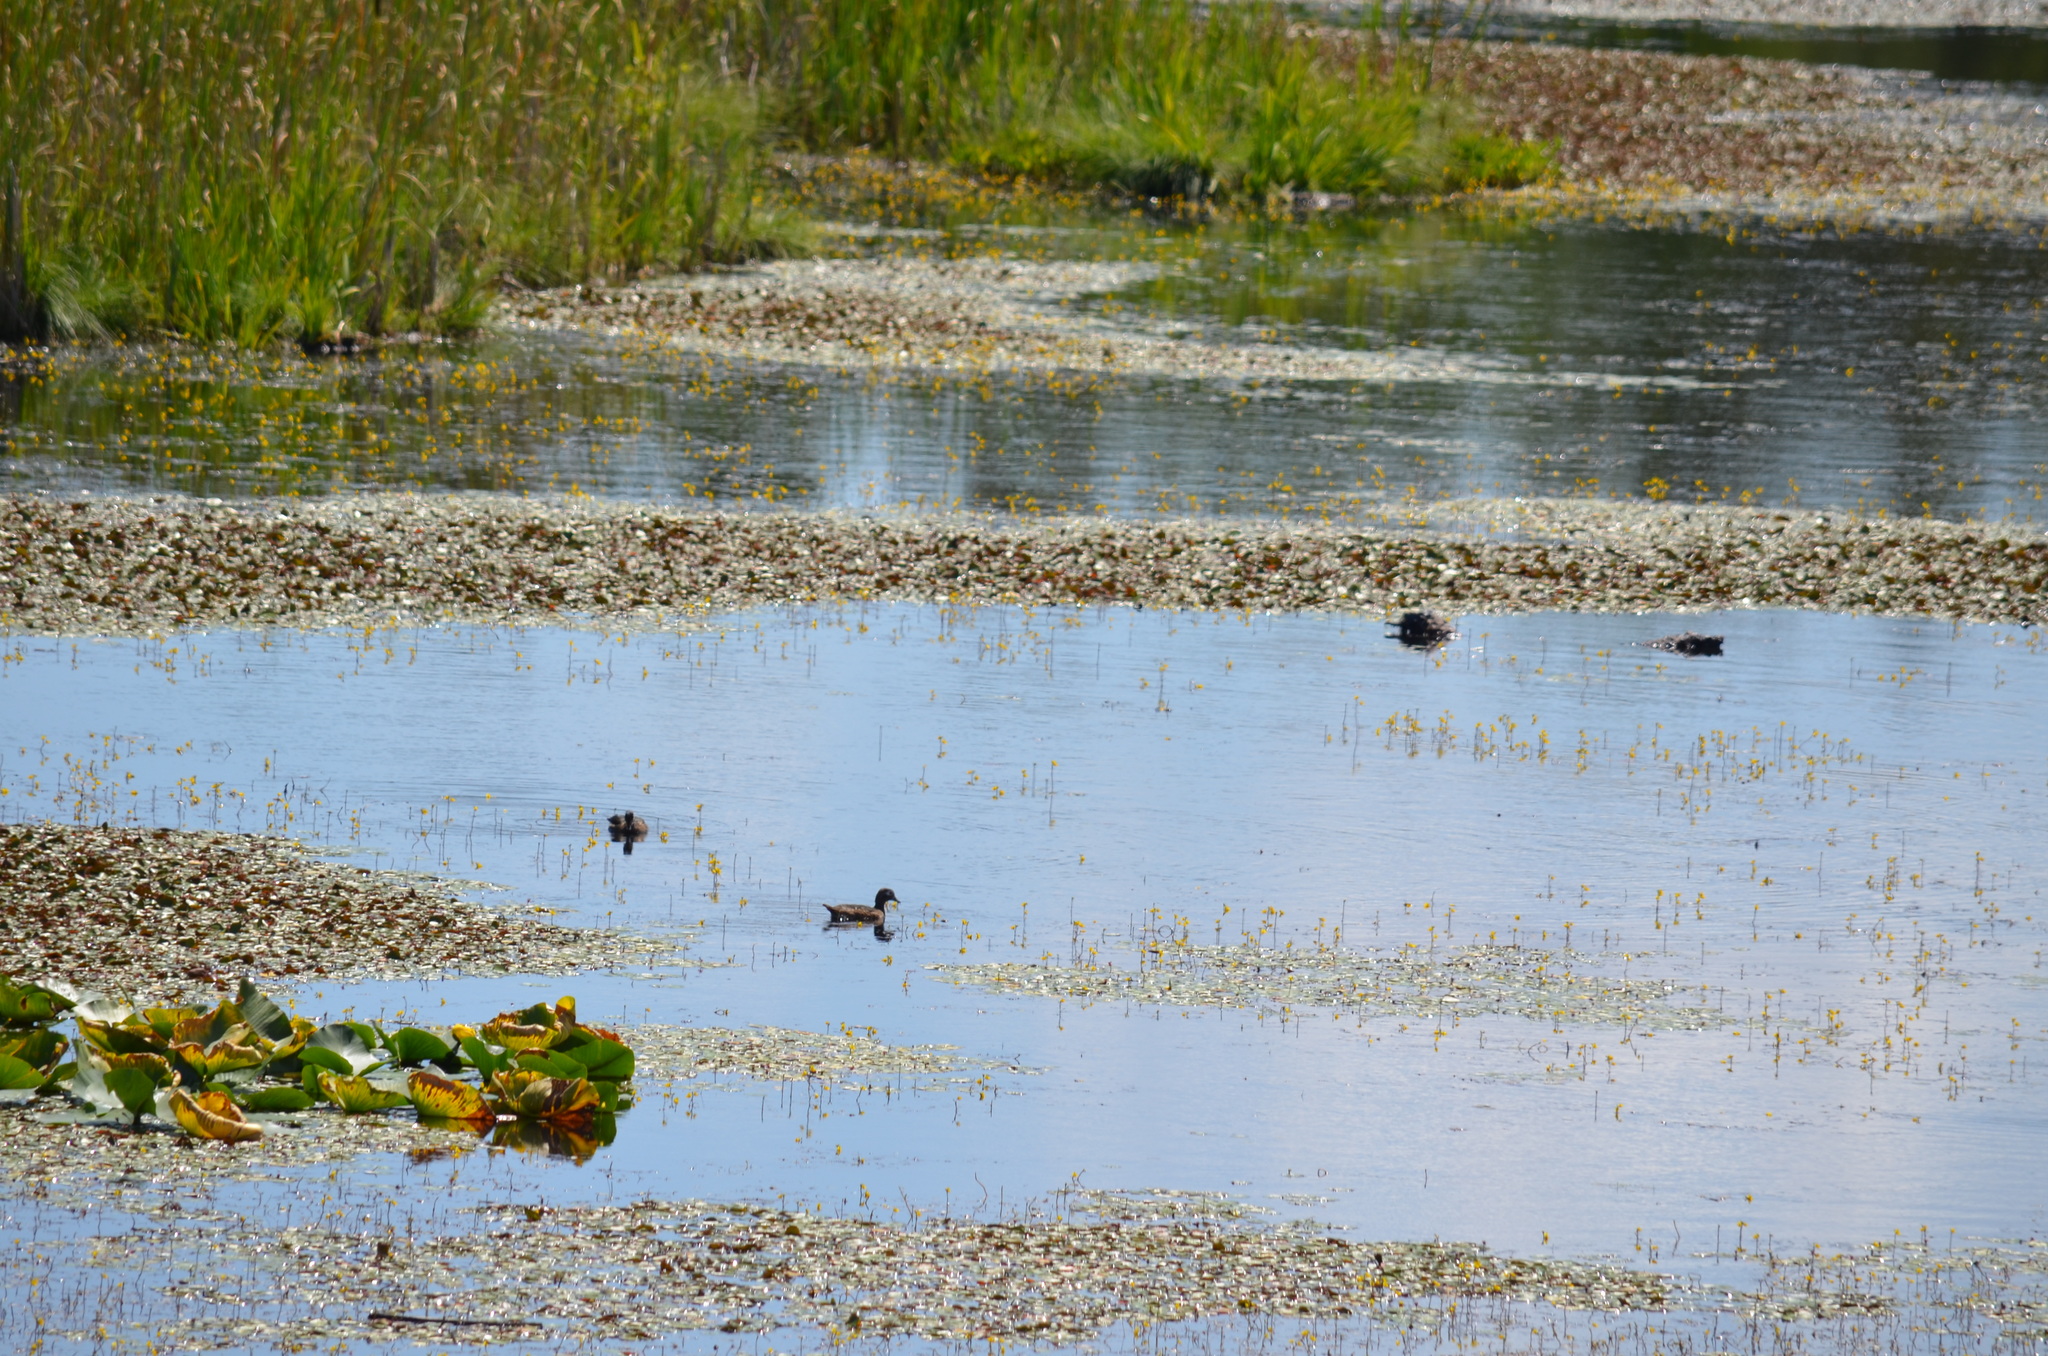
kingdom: Animalia
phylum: Chordata
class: Aves
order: Anseriformes
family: Anatidae
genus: Aix
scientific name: Aix sponsa
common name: Wood duck
